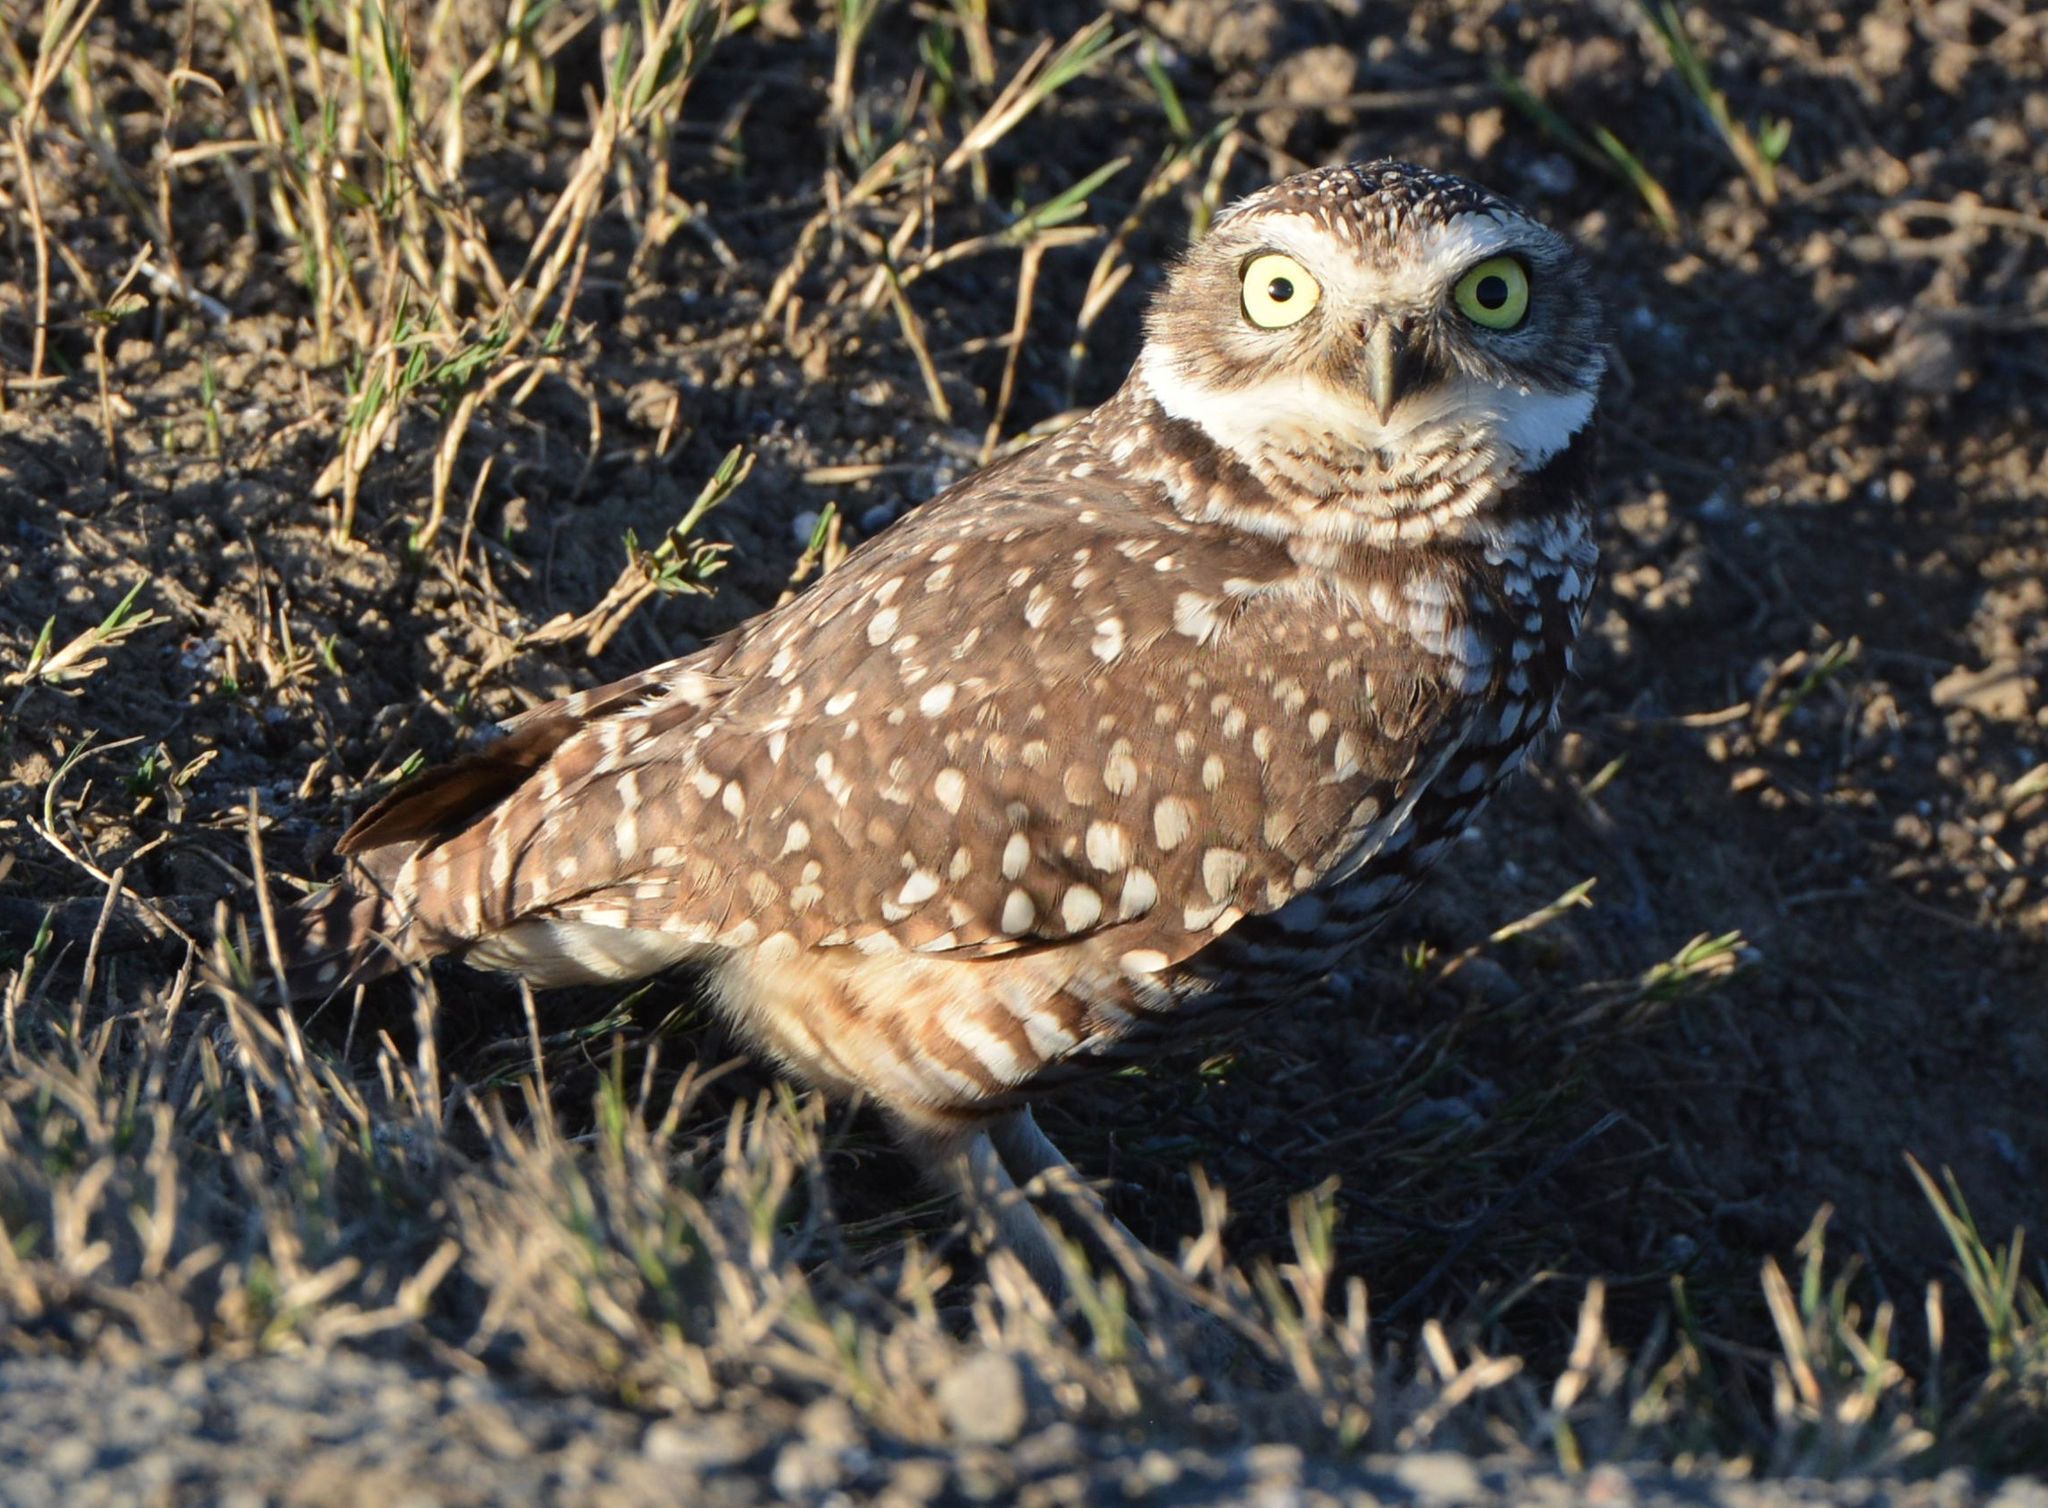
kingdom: Animalia
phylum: Chordata
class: Aves
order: Strigiformes
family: Strigidae
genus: Athene
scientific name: Athene cunicularia
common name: Burrowing owl
